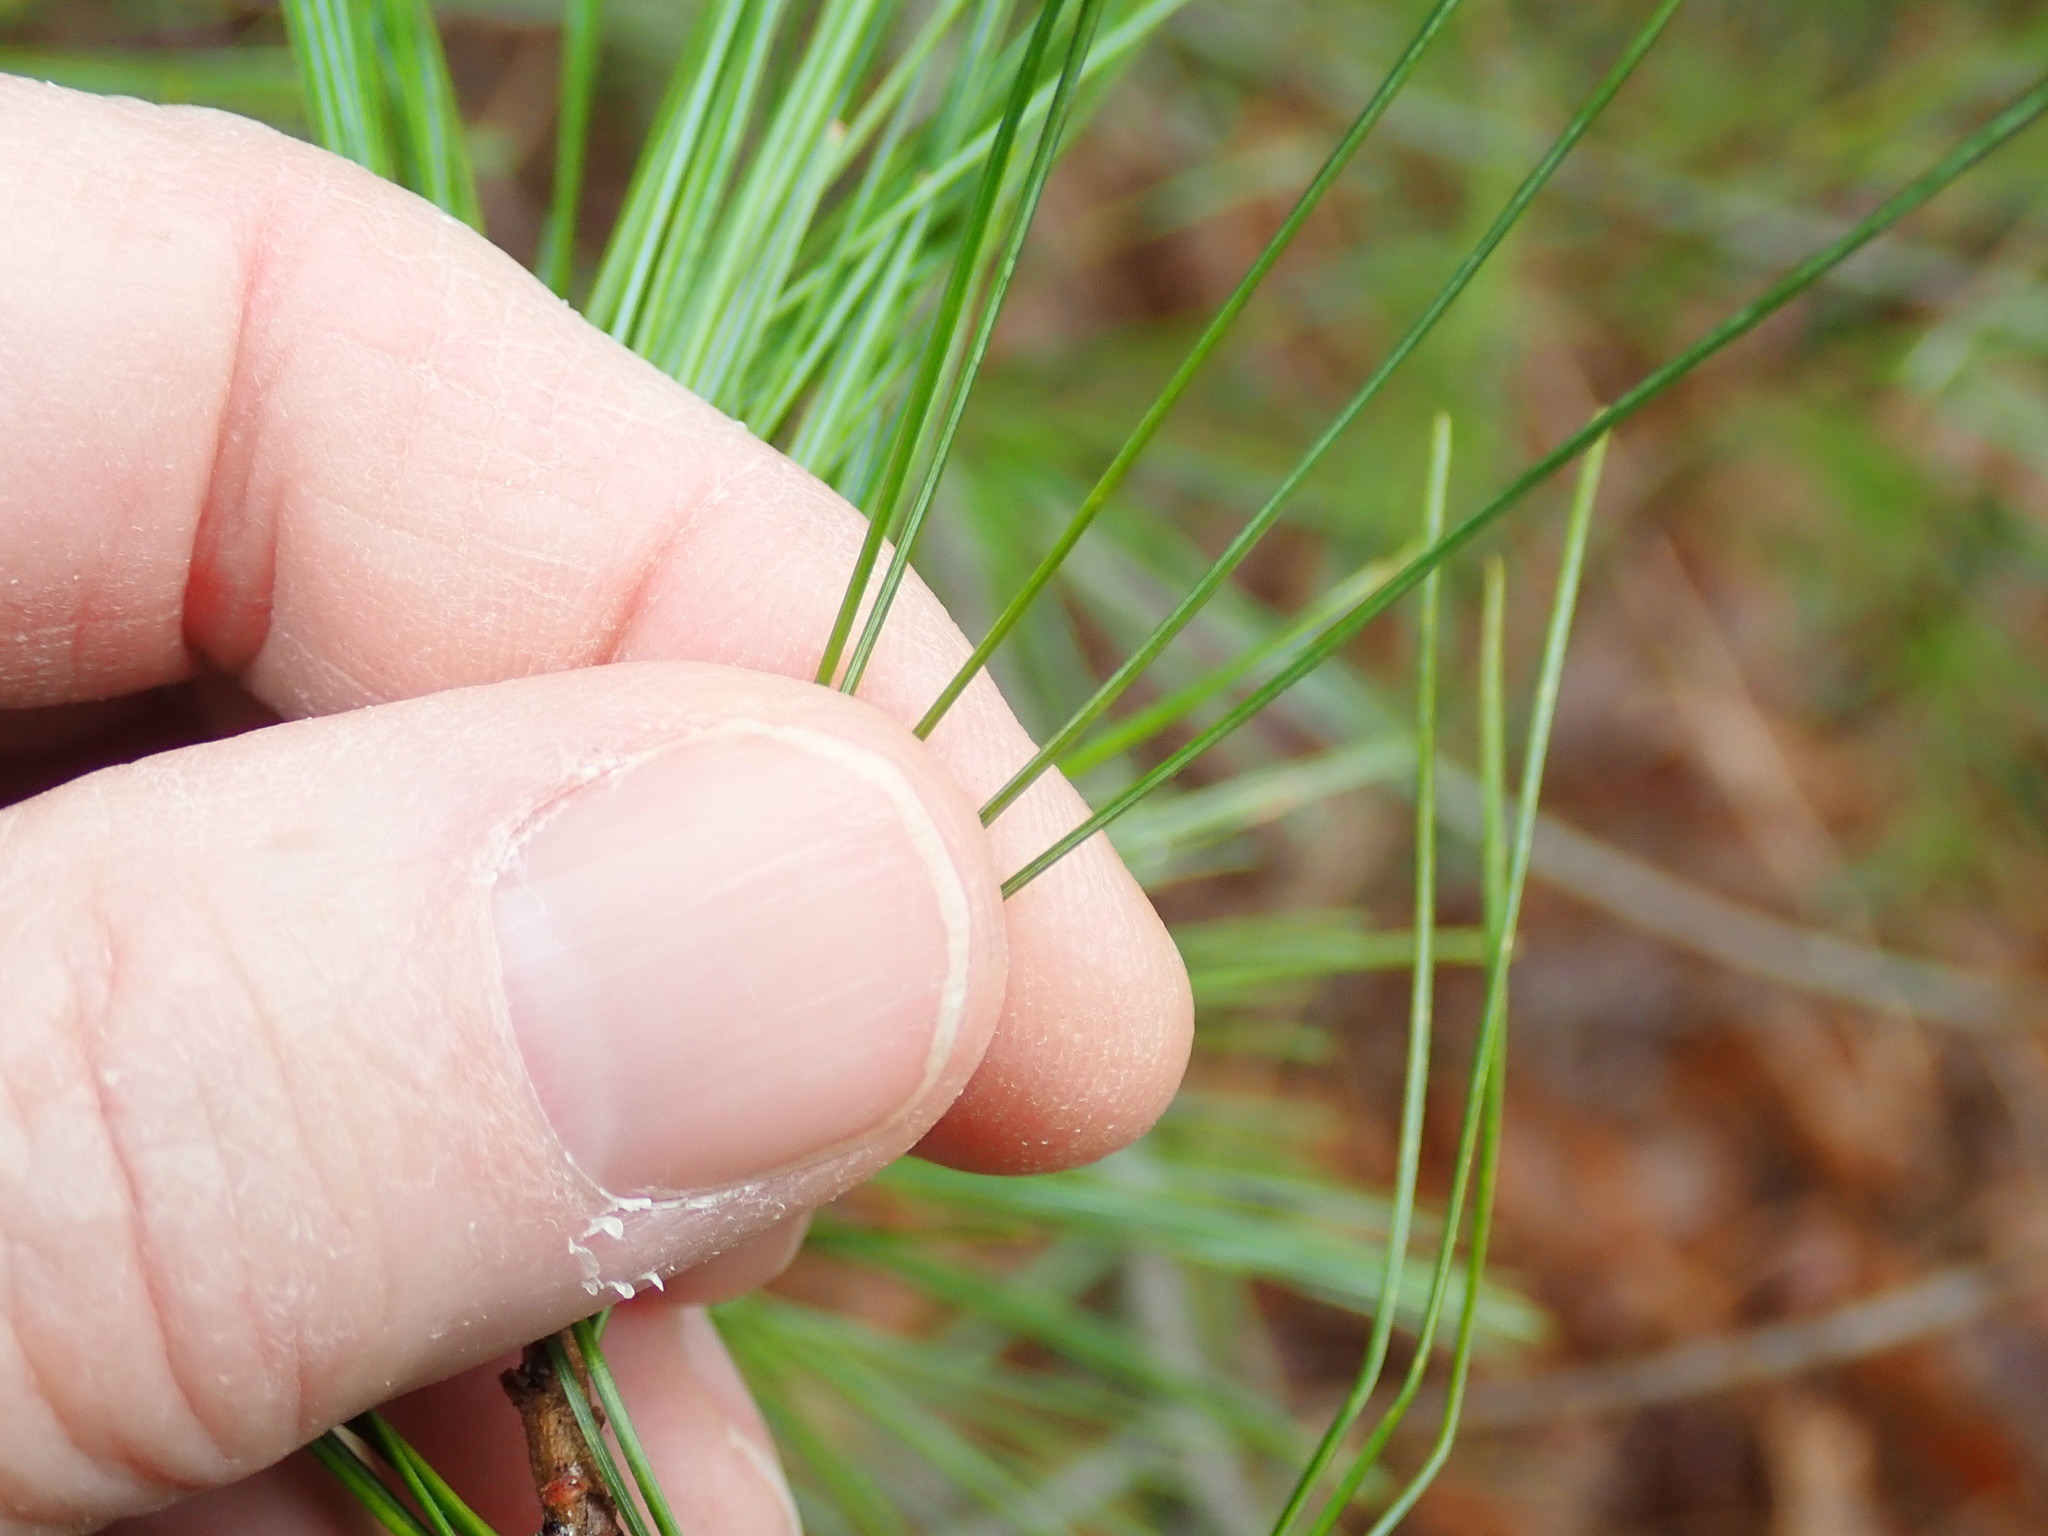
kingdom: Plantae
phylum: Tracheophyta
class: Pinopsida
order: Pinales
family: Pinaceae
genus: Pinus
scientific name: Pinus strobus
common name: Weymouth pine
